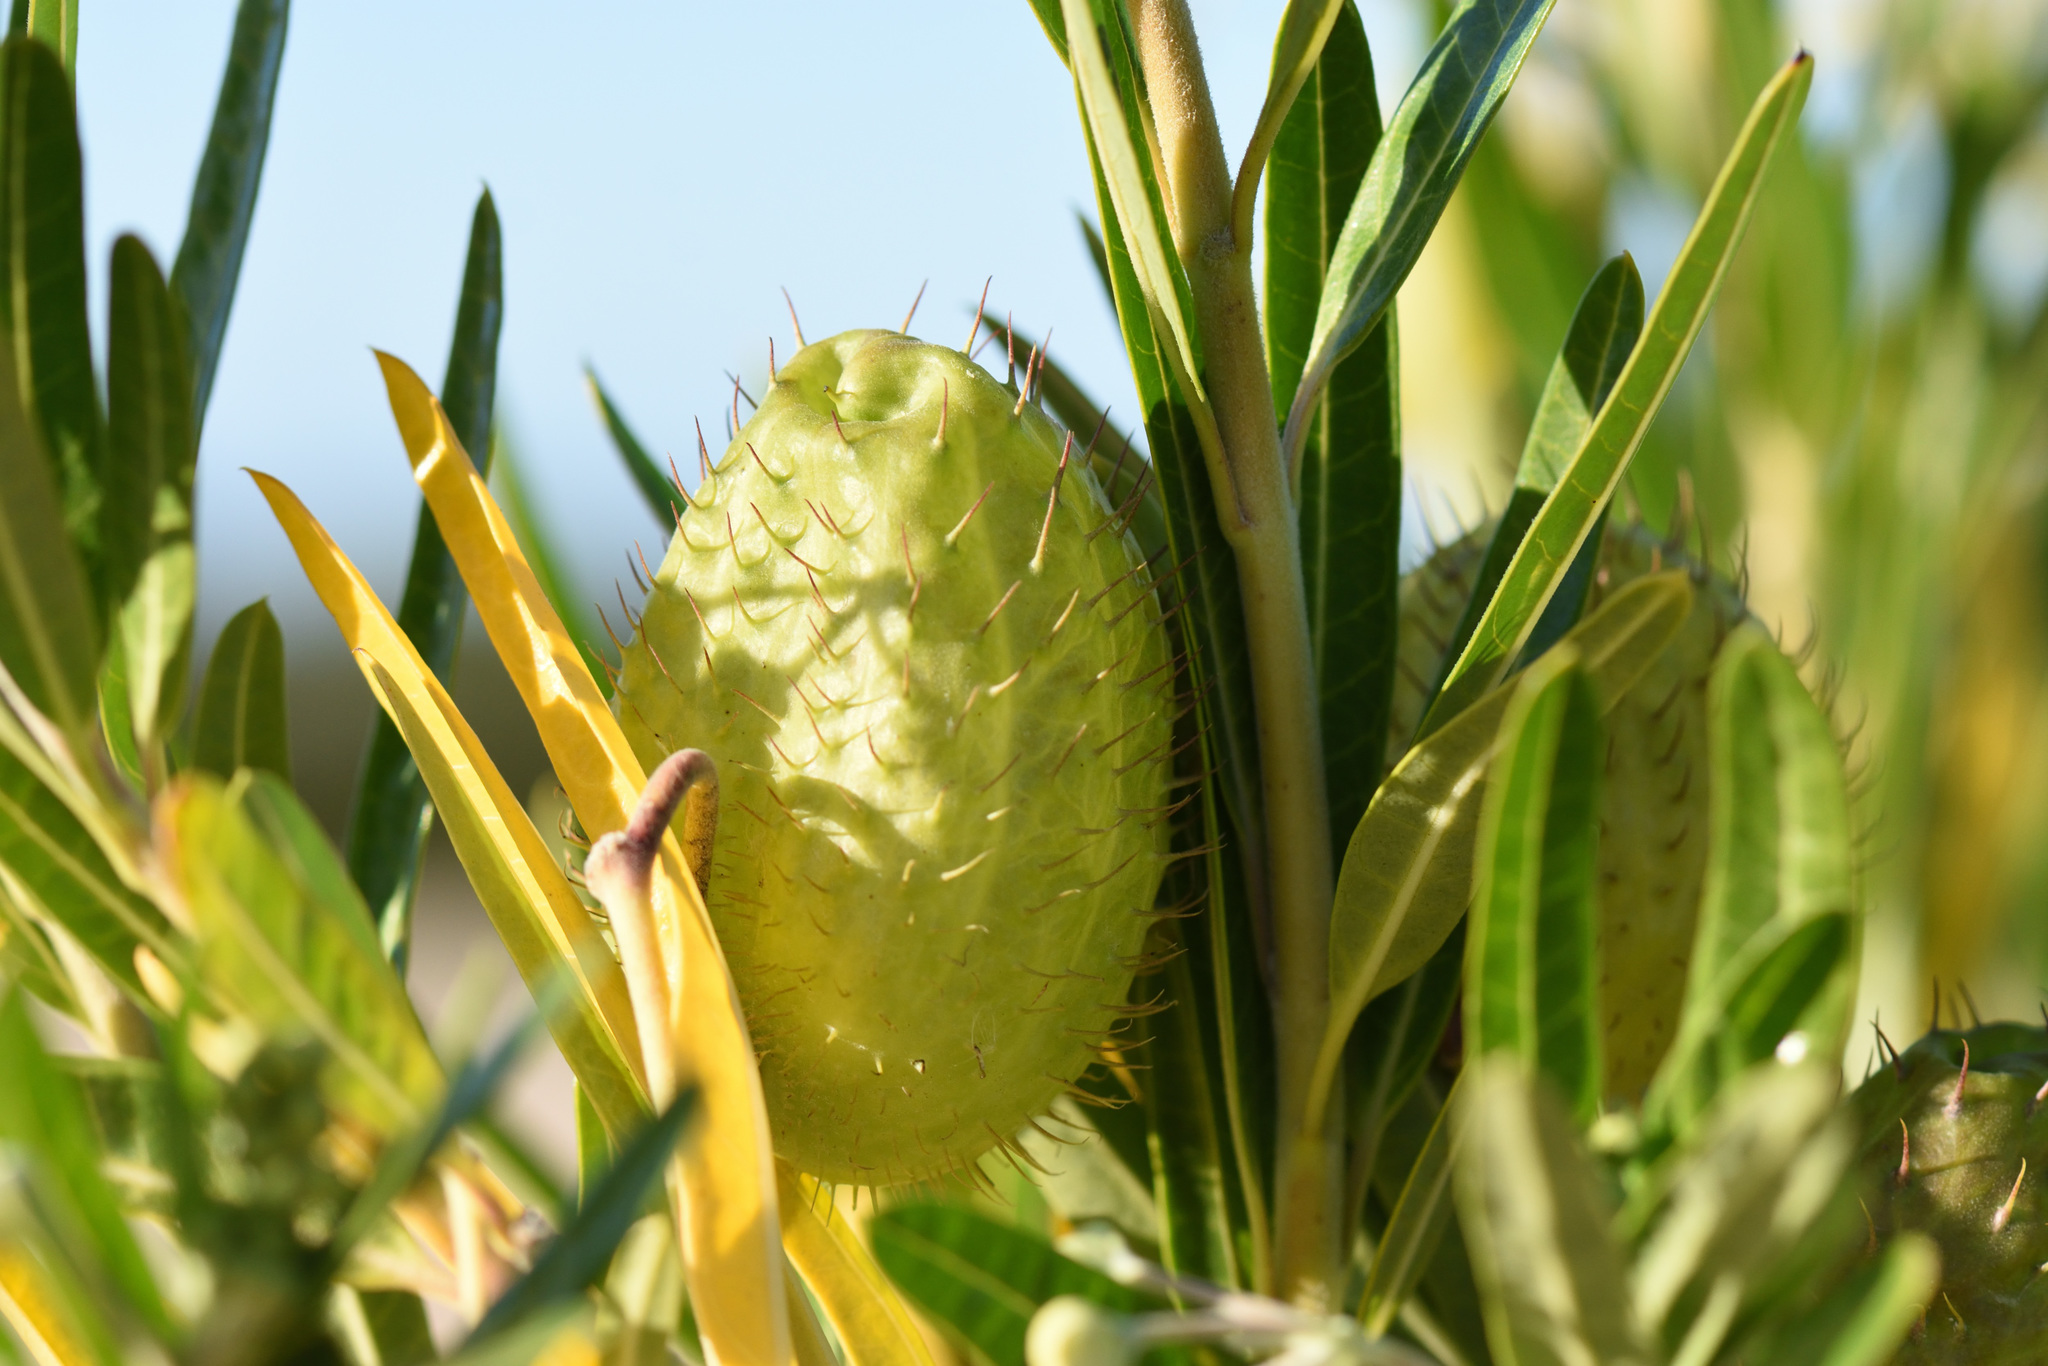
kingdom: Plantae
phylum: Tracheophyta
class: Magnoliopsida
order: Gentianales
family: Apocynaceae
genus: Gomphocarpus
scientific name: Gomphocarpus physocarpus
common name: Balloon cotton bush
